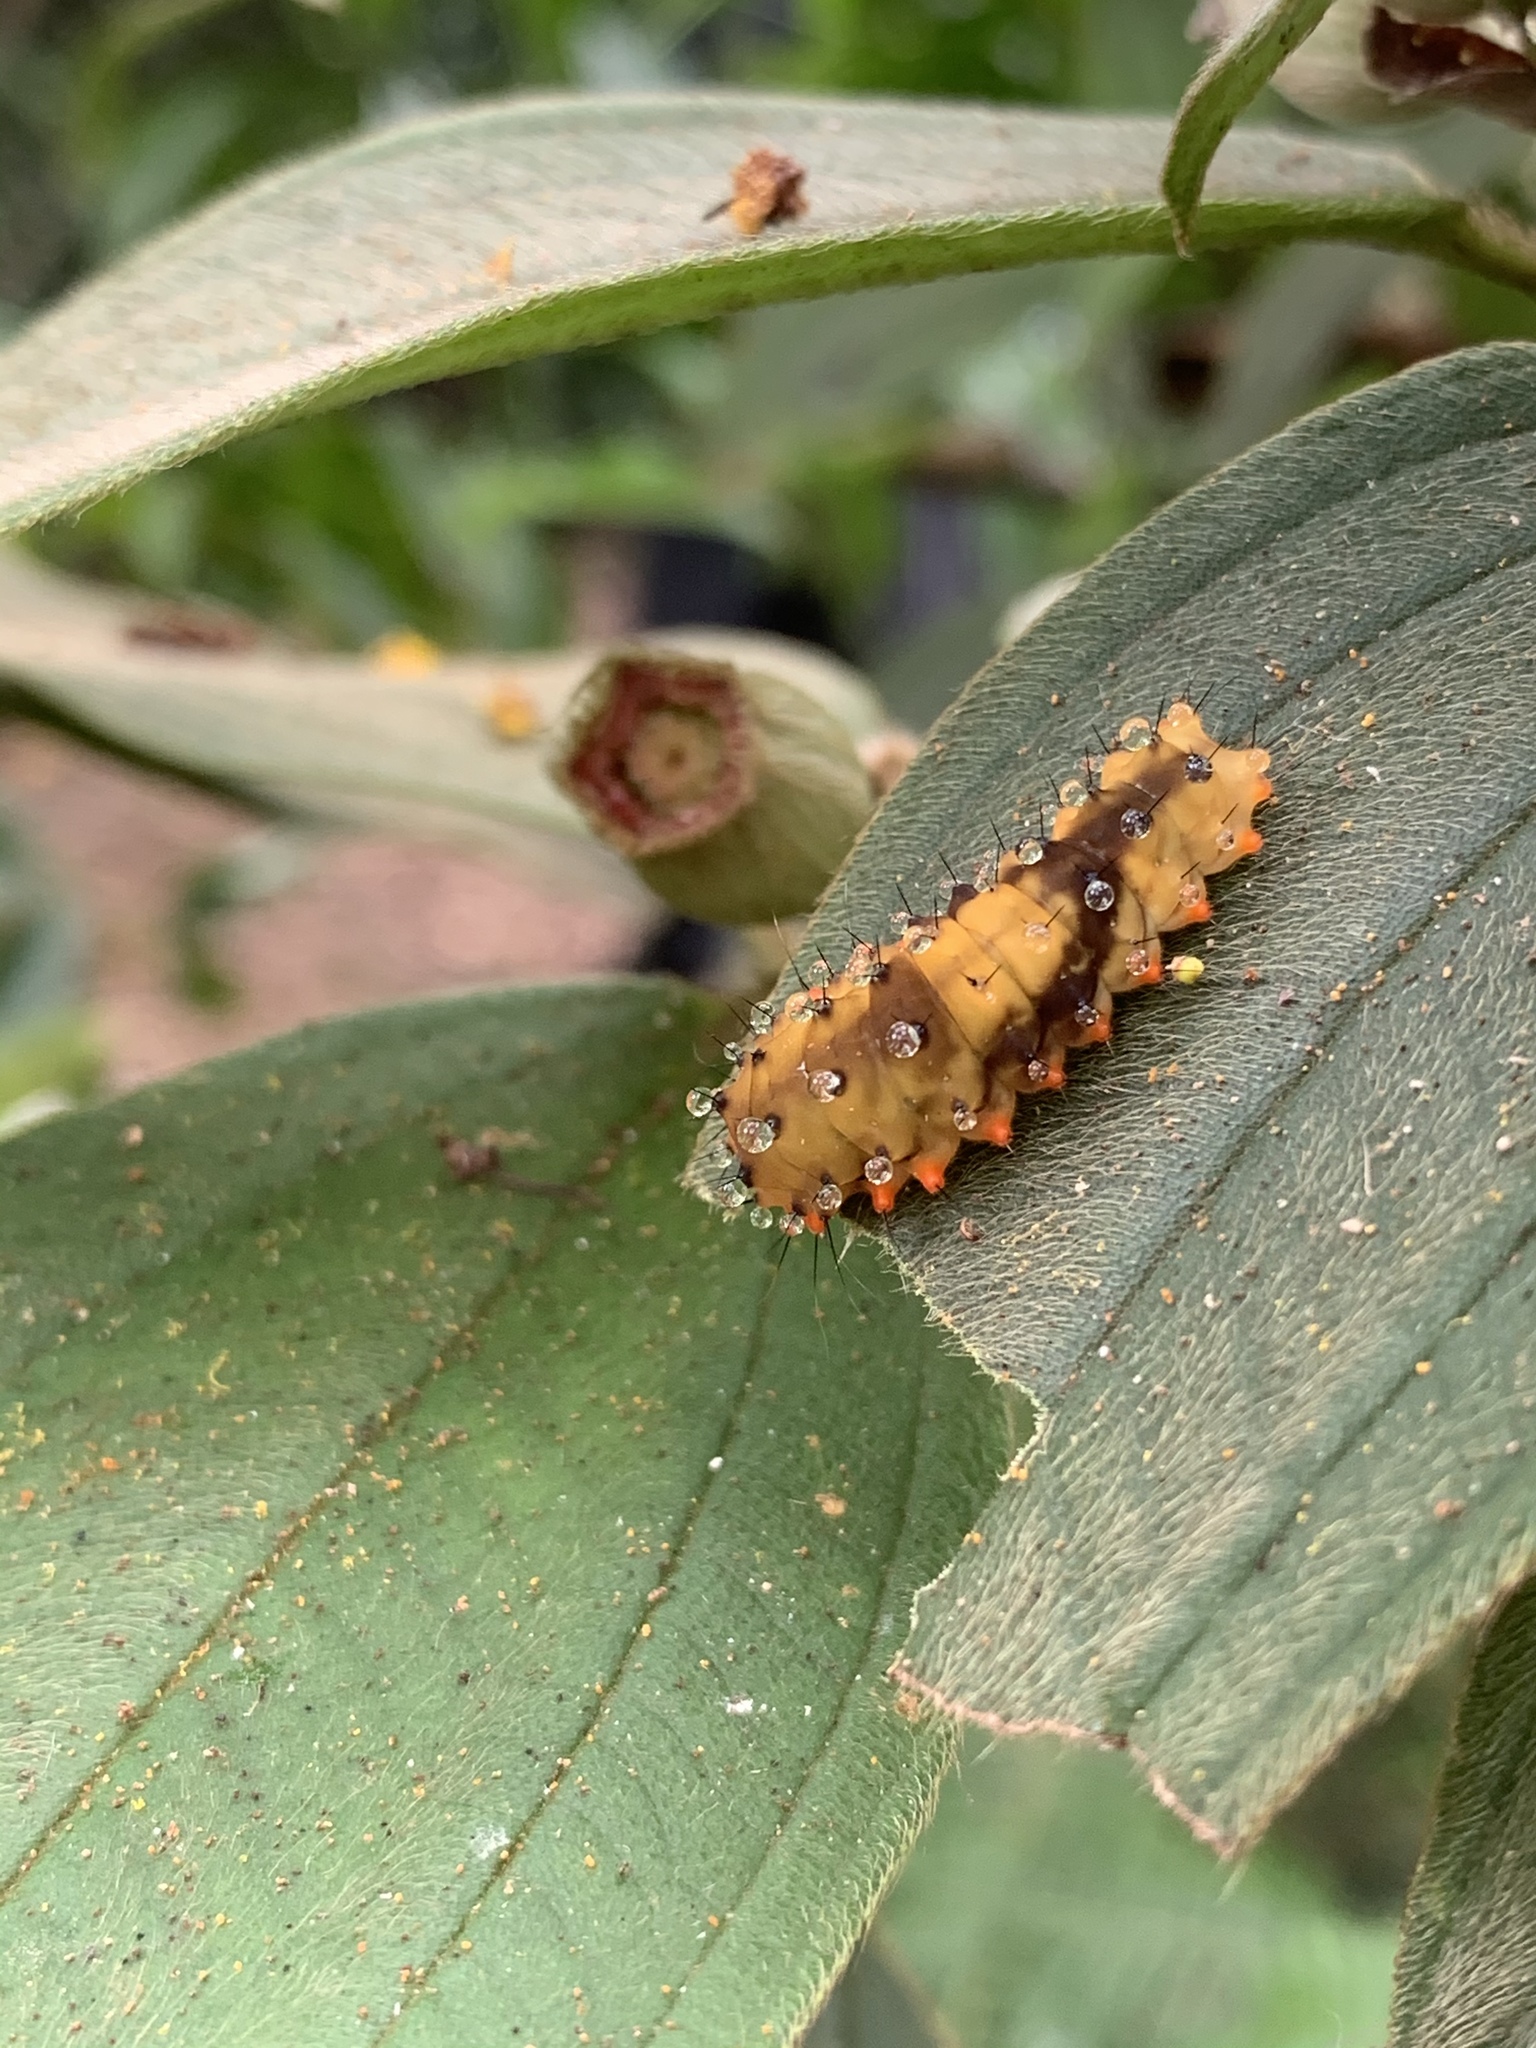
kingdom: Animalia
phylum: Arthropoda
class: Insecta
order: Lepidoptera
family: Zygaenidae
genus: Eterusia
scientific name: Eterusia aedea
